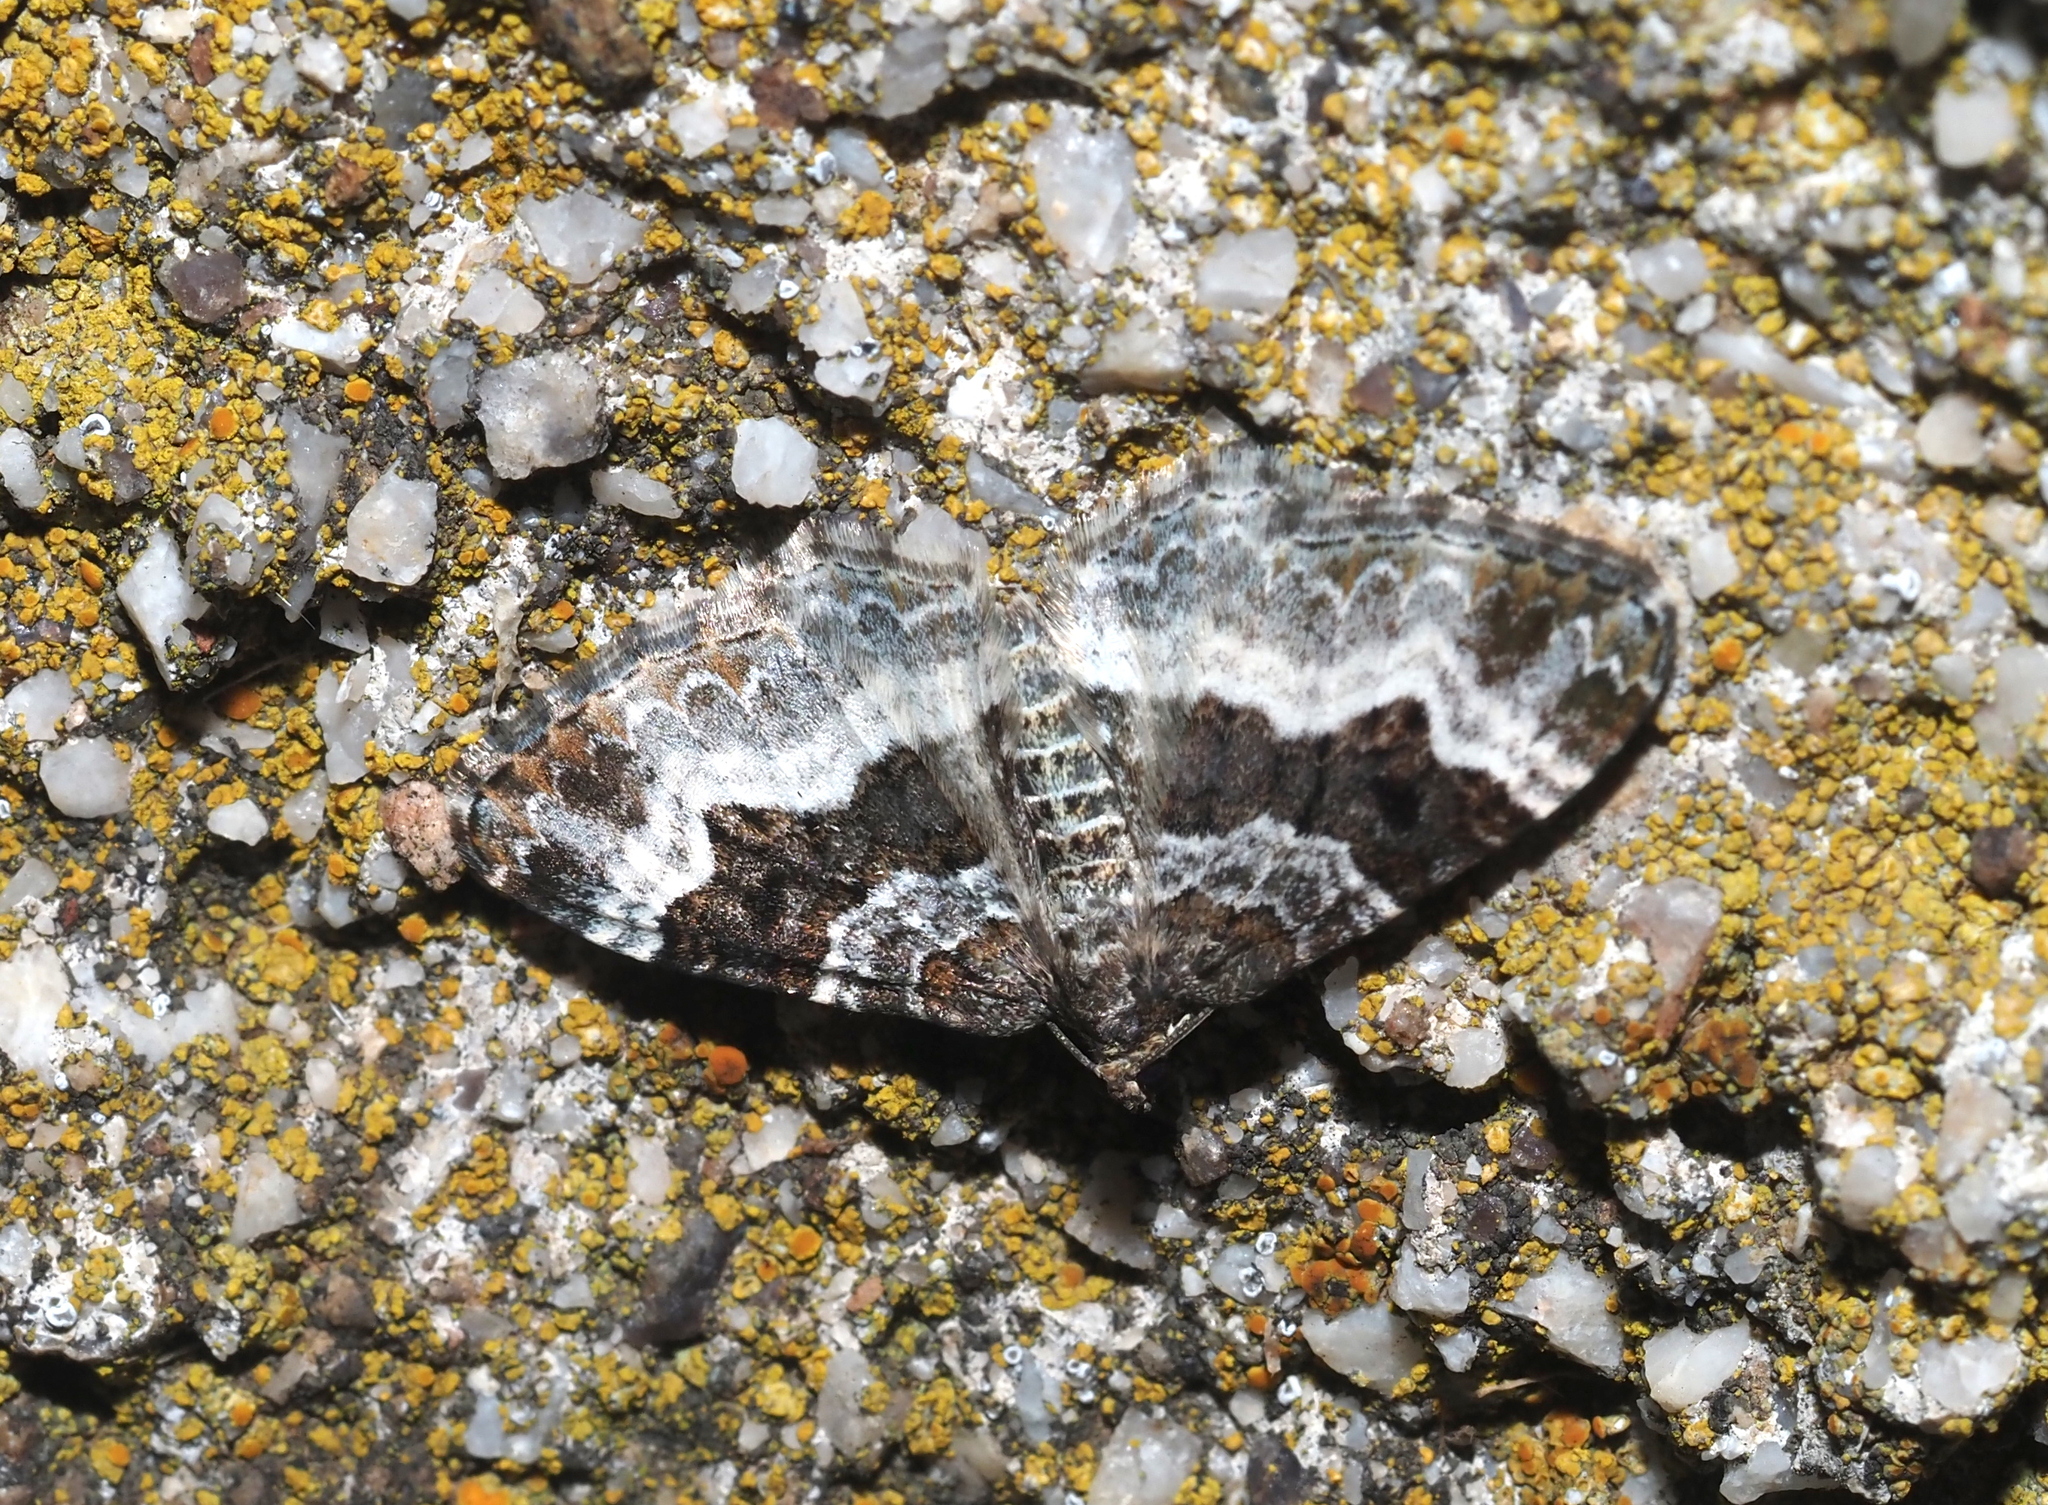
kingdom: Animalia
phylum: Arthropoda
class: Insecta
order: Lepidoptera
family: Geometridae
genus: Epirrhoe
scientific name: Epirrhoe alternata
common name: Common carpet
